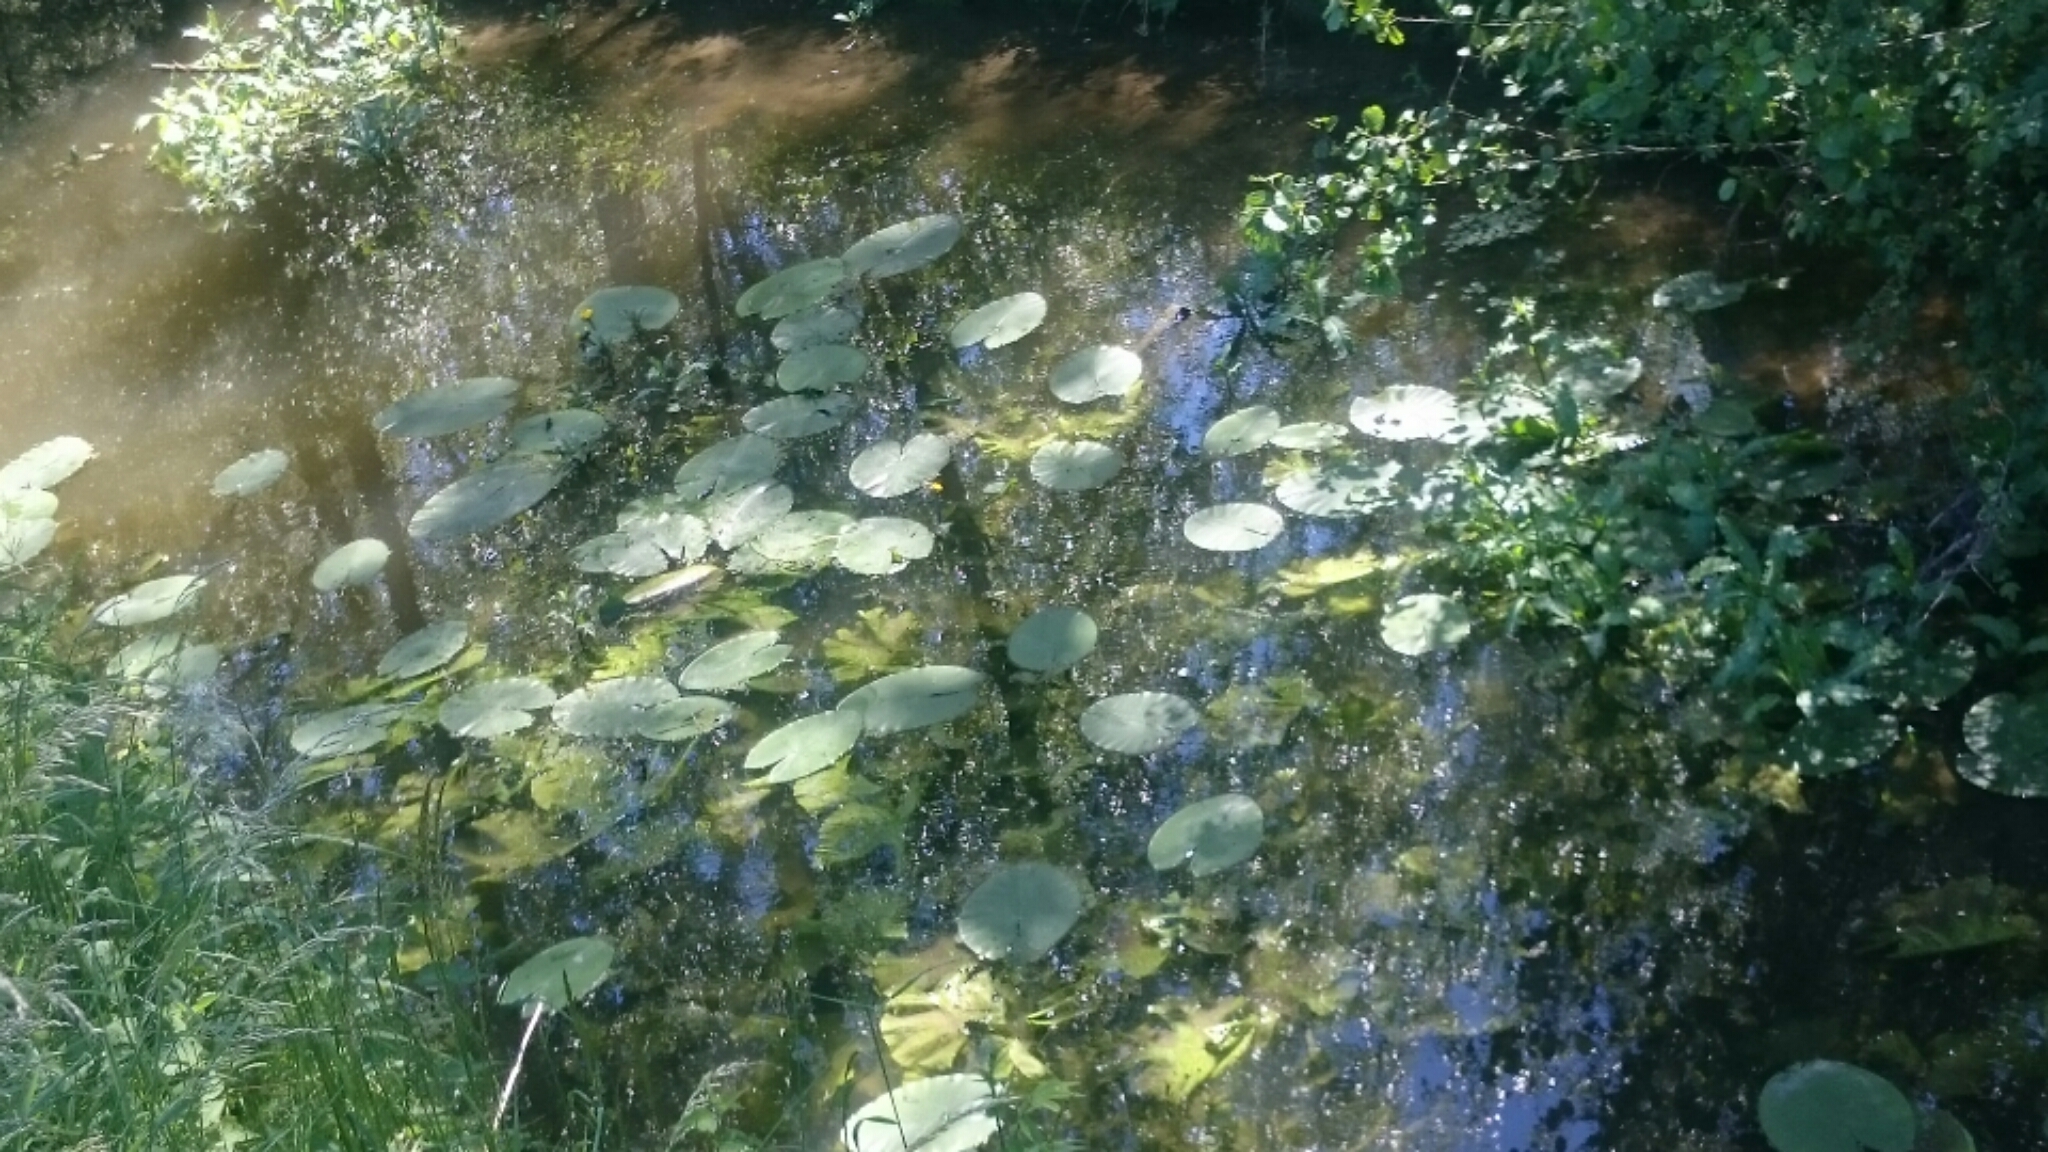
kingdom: Plantae
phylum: Tracheophyta
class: Magnoliopsida
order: Nymphaeales
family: Nymphaeaceae
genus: Nuphar
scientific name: Nuphar lutea
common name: Yellow water-lily
